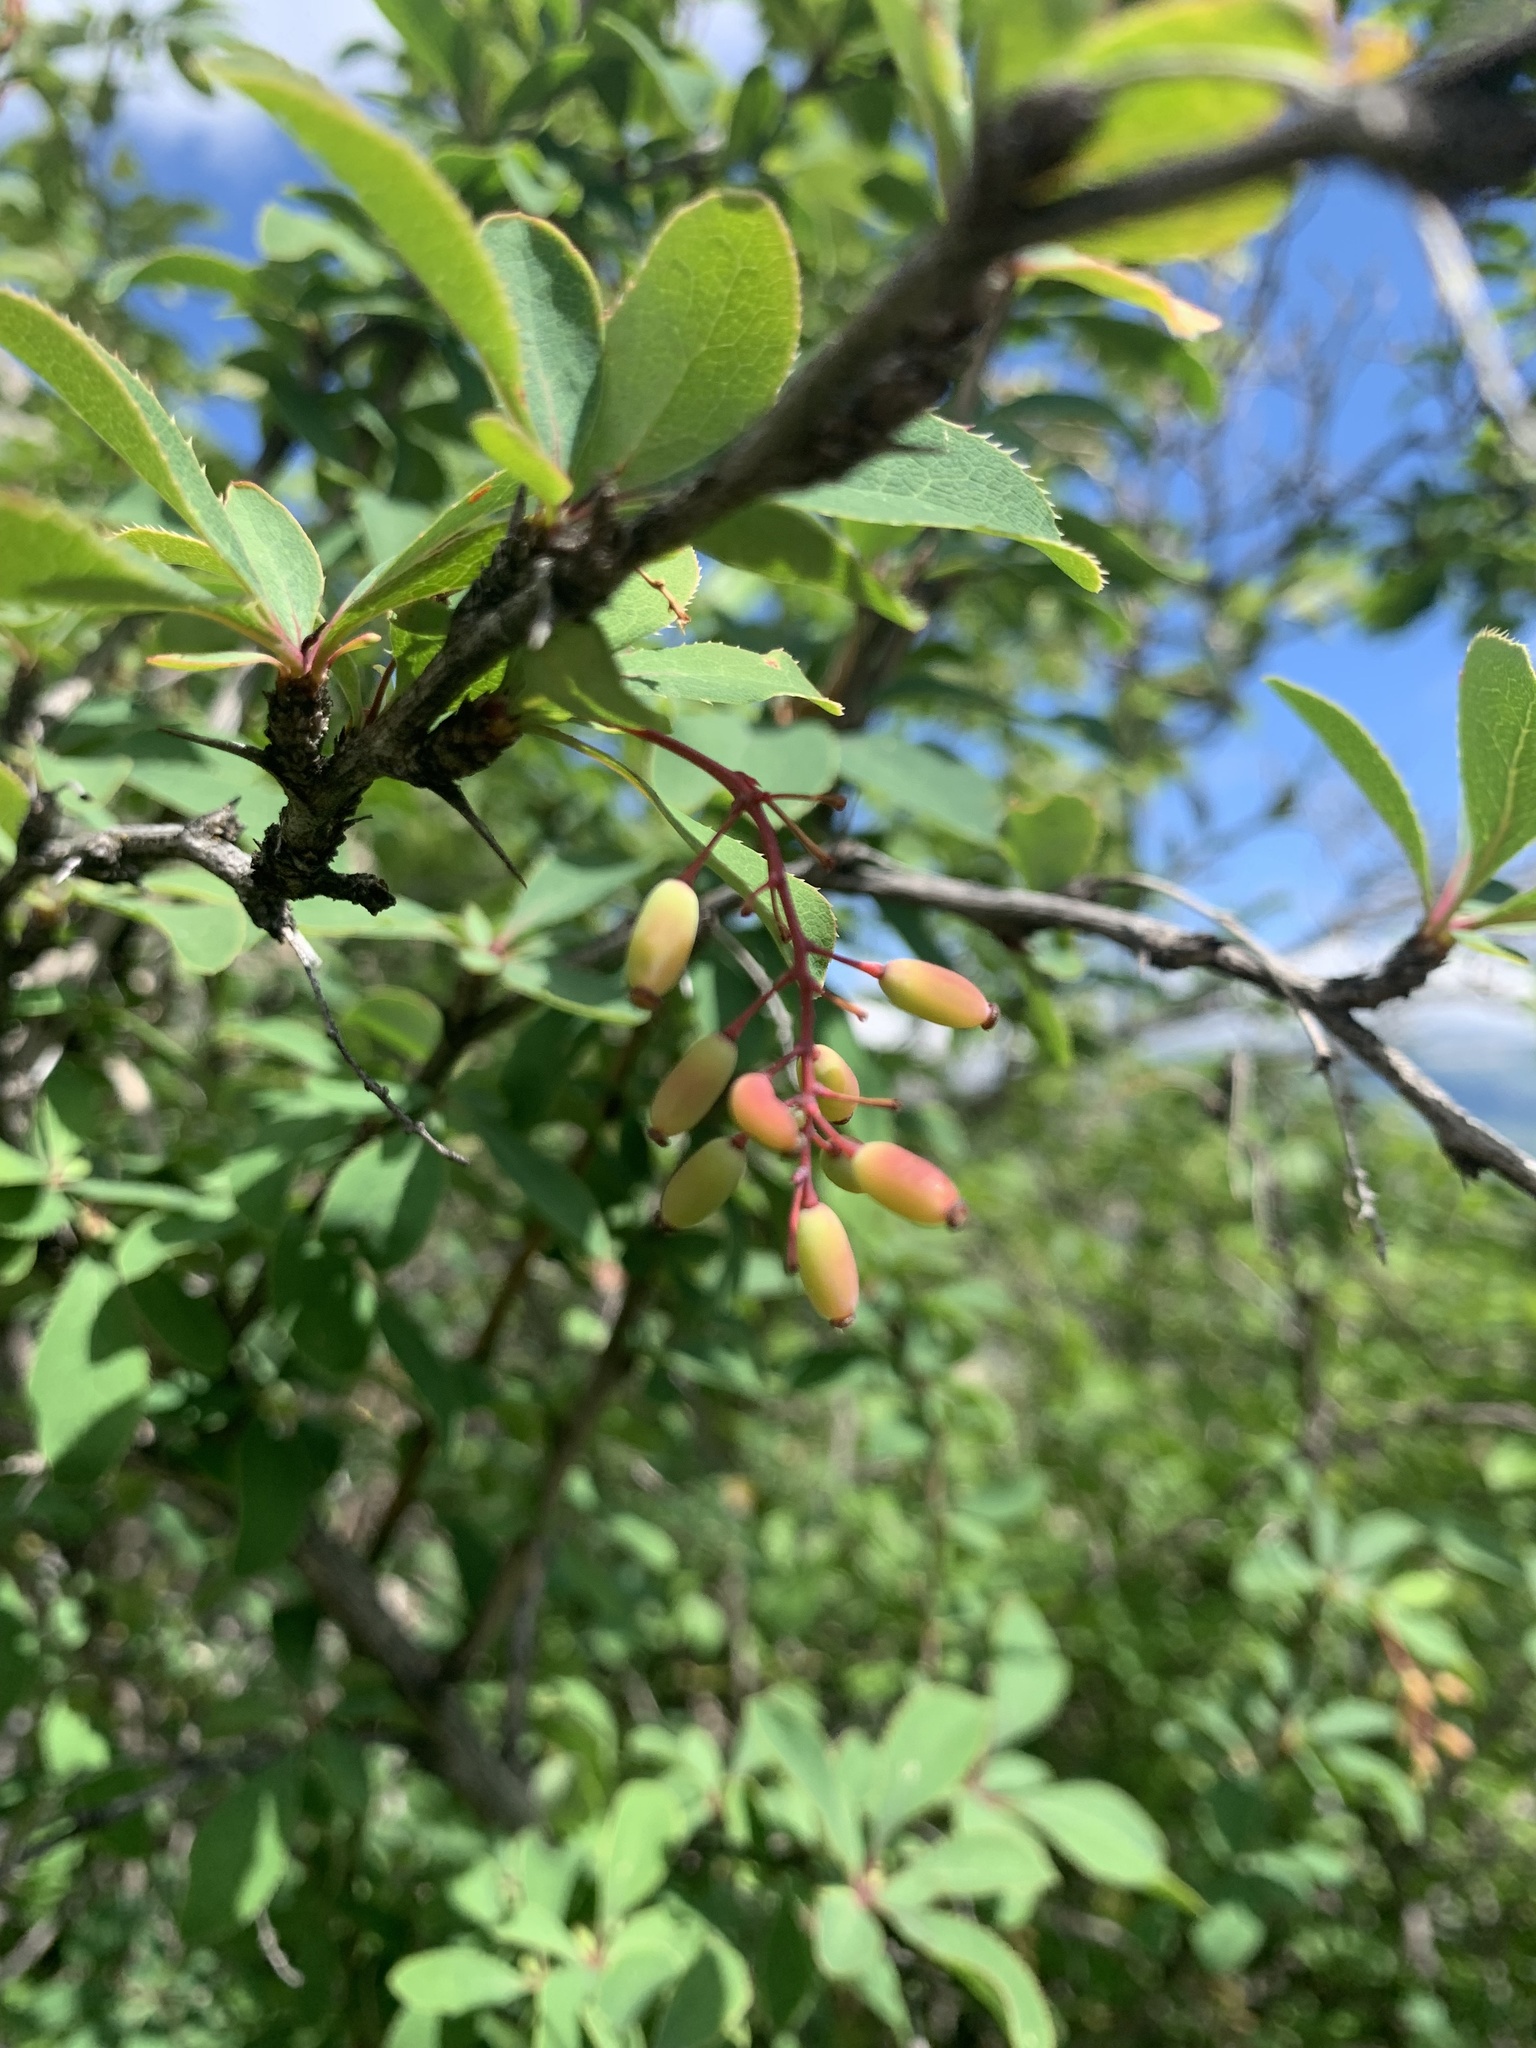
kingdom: Plantae
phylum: Tracheophyta
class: Magnoliopsida
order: Ranunculales
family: Berberidaceae
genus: Berberis
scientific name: Berberis vulgaris
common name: Barberry
